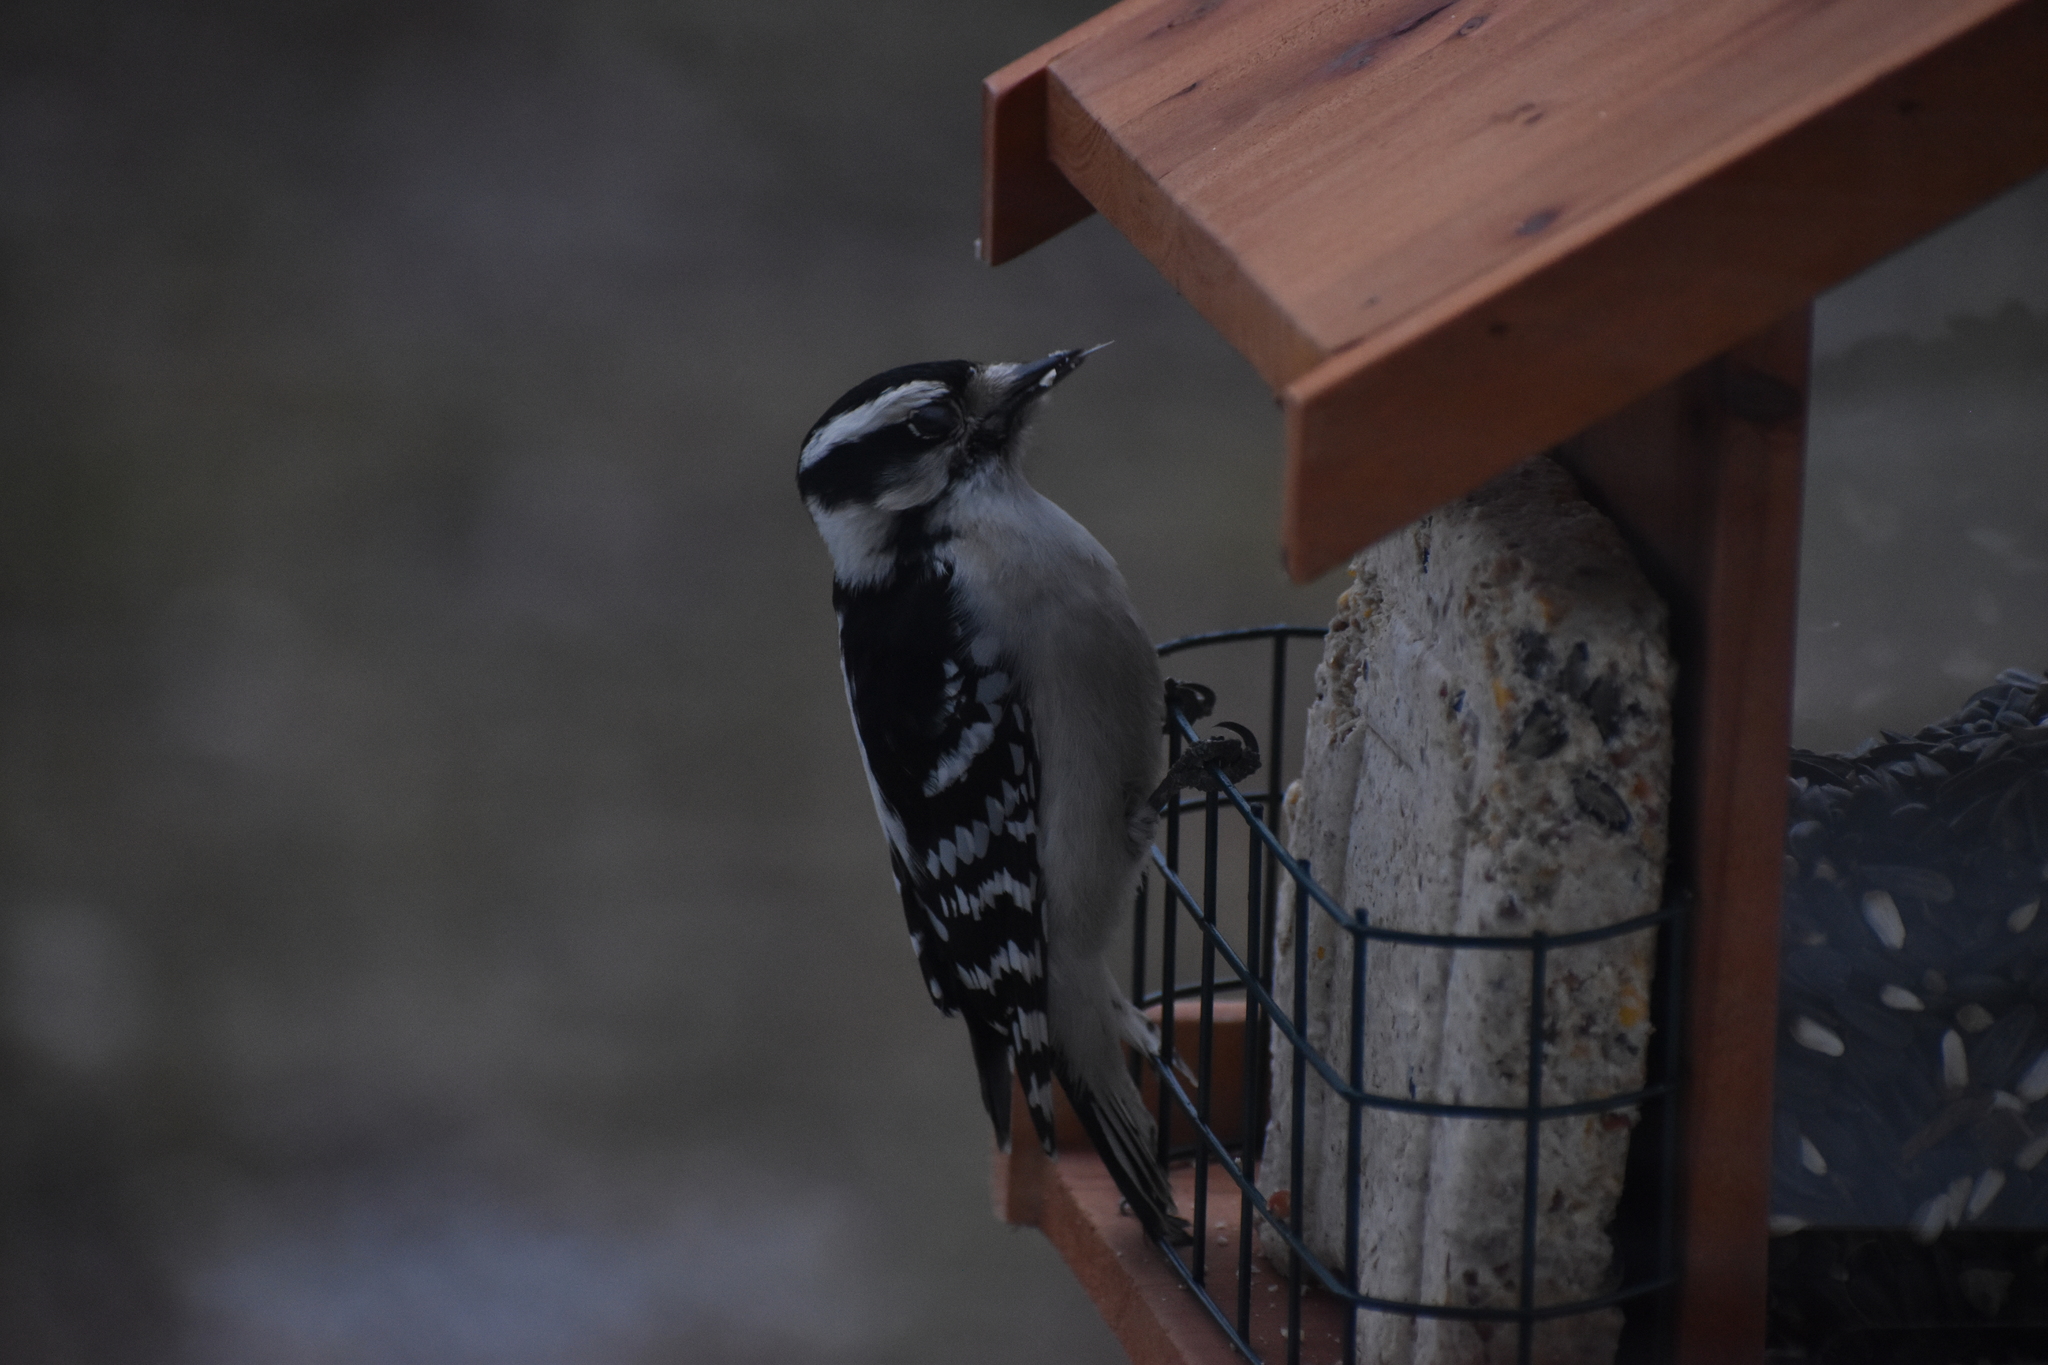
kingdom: Animalia
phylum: Chordata
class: Aves
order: Piciformes
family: Picidae
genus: Dryobates
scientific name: Dryobates pubescens
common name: Downy woodpecker
